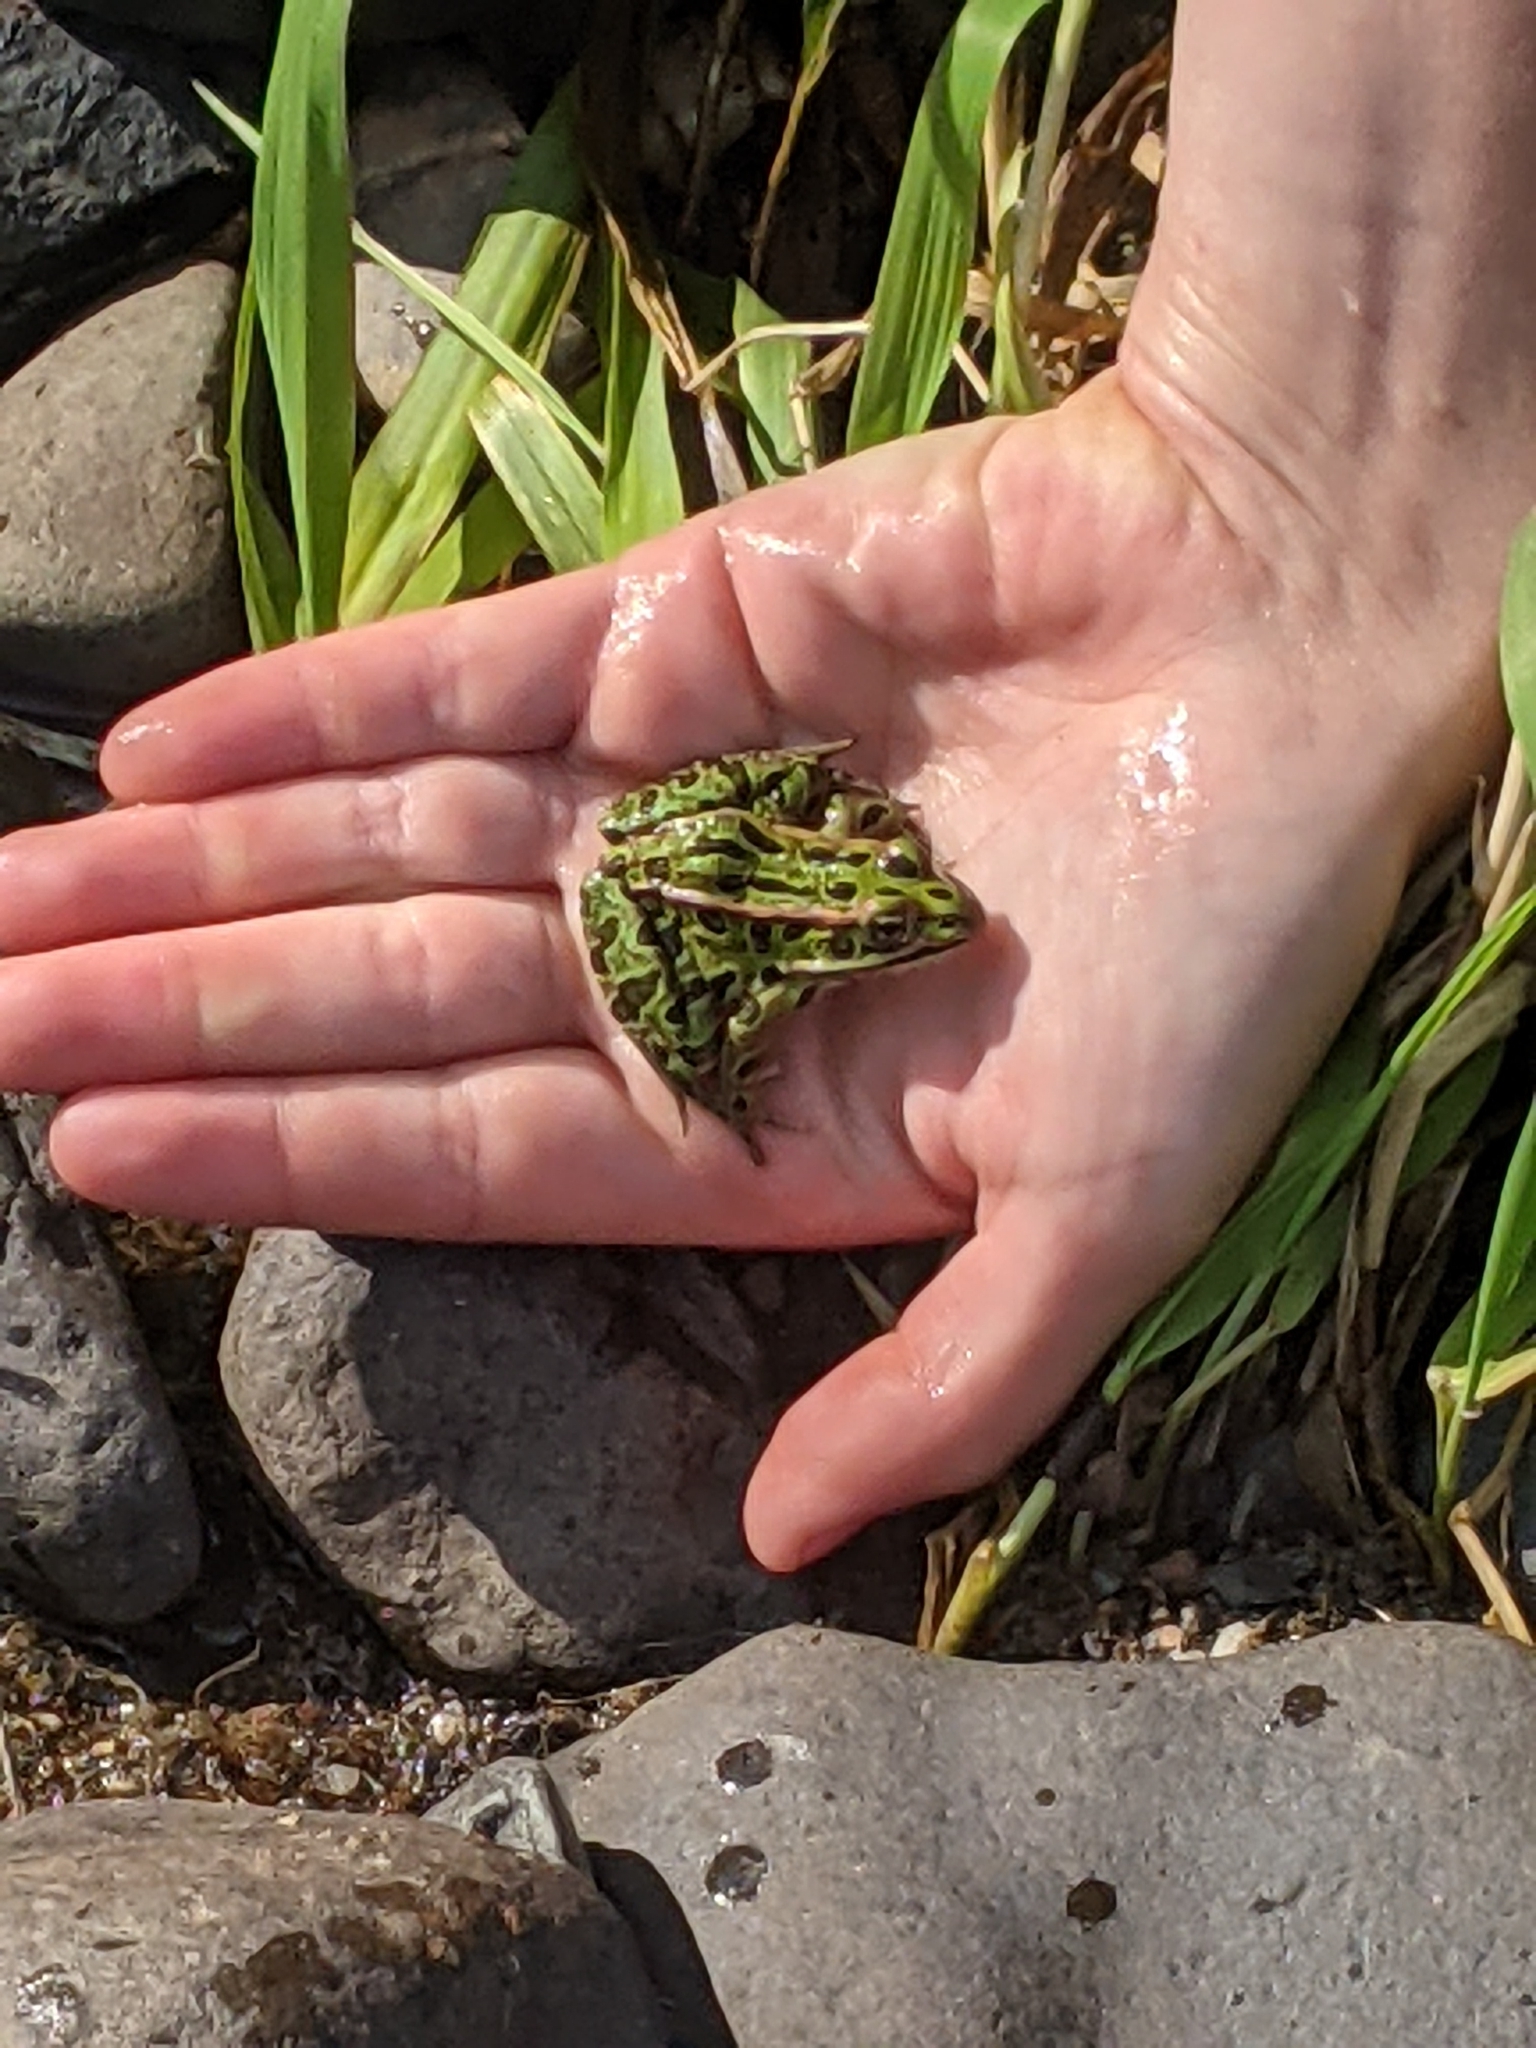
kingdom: Animalia
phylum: Chordata
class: Amphibia
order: Anura
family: Ranidae
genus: Lithobates
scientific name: Lithobates pipiens
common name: Northern leopard frog
